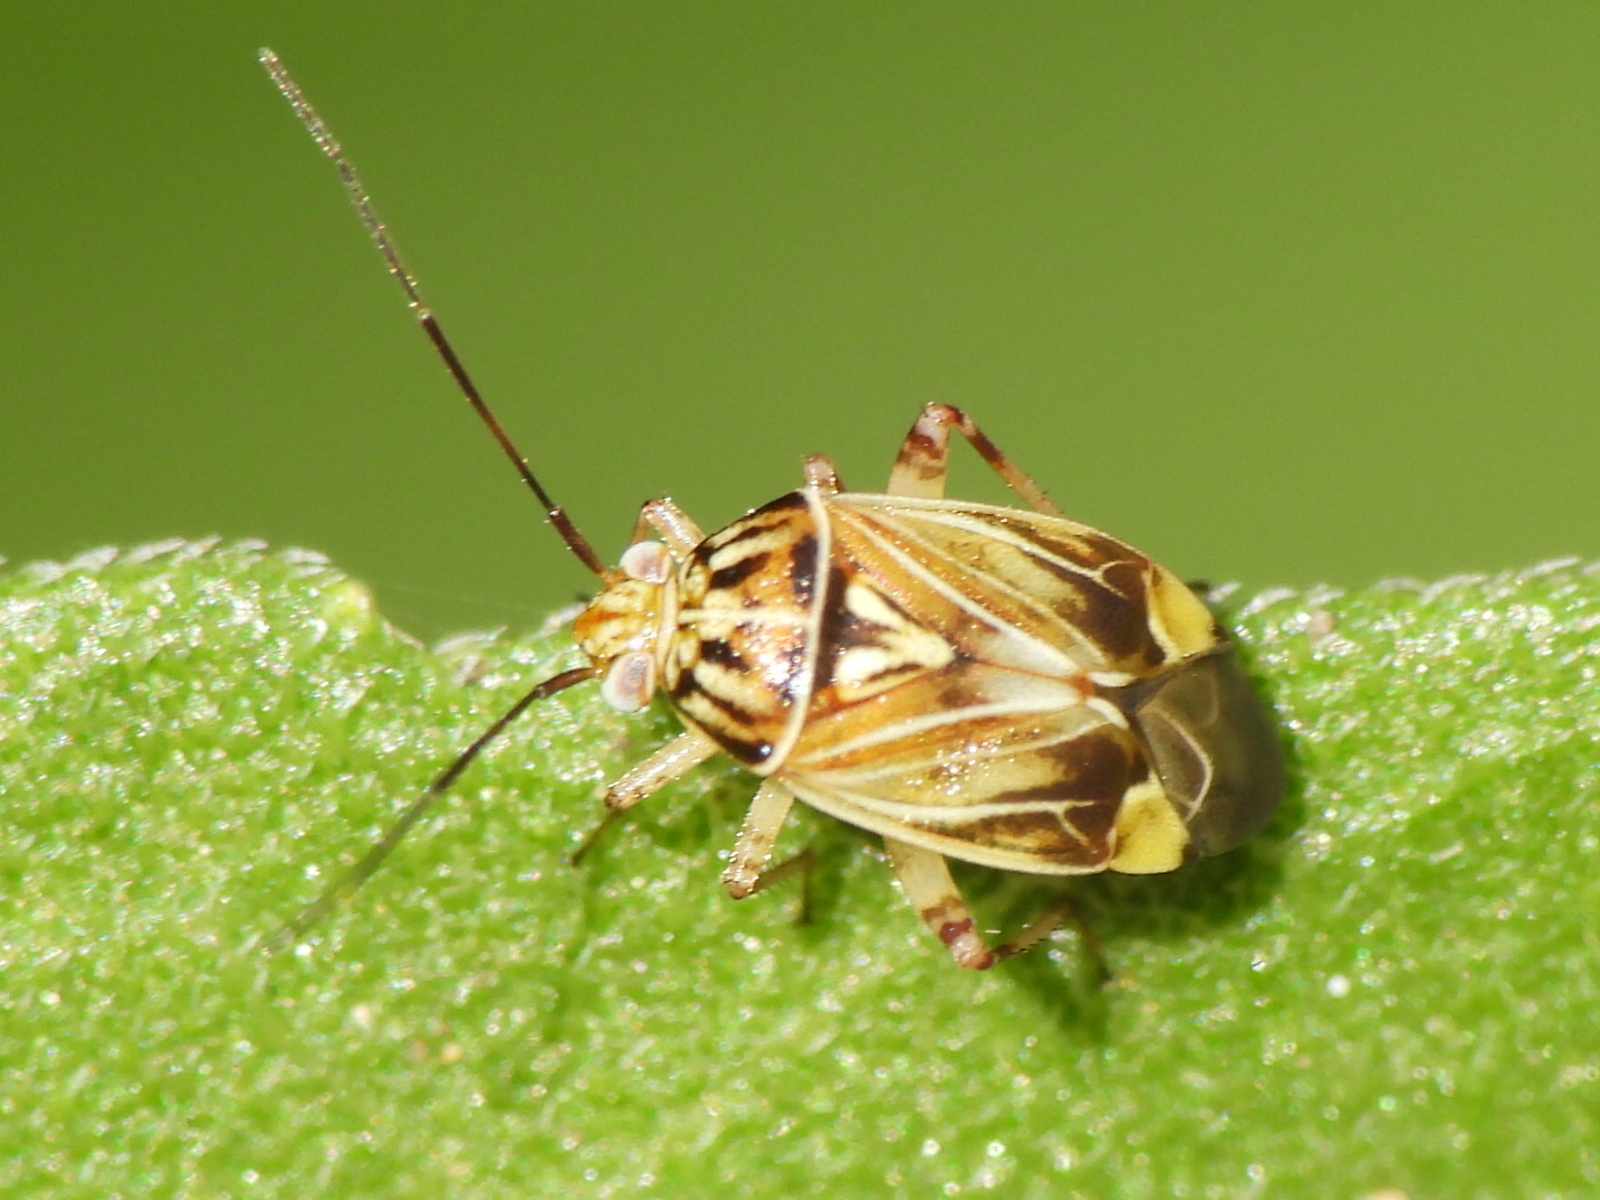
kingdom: Animalia
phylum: Arthropoda
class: Insecta
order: Hemiptera
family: Miridae
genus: Lygus
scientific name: Lygus lineolaris
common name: North american tarnished plant bug
